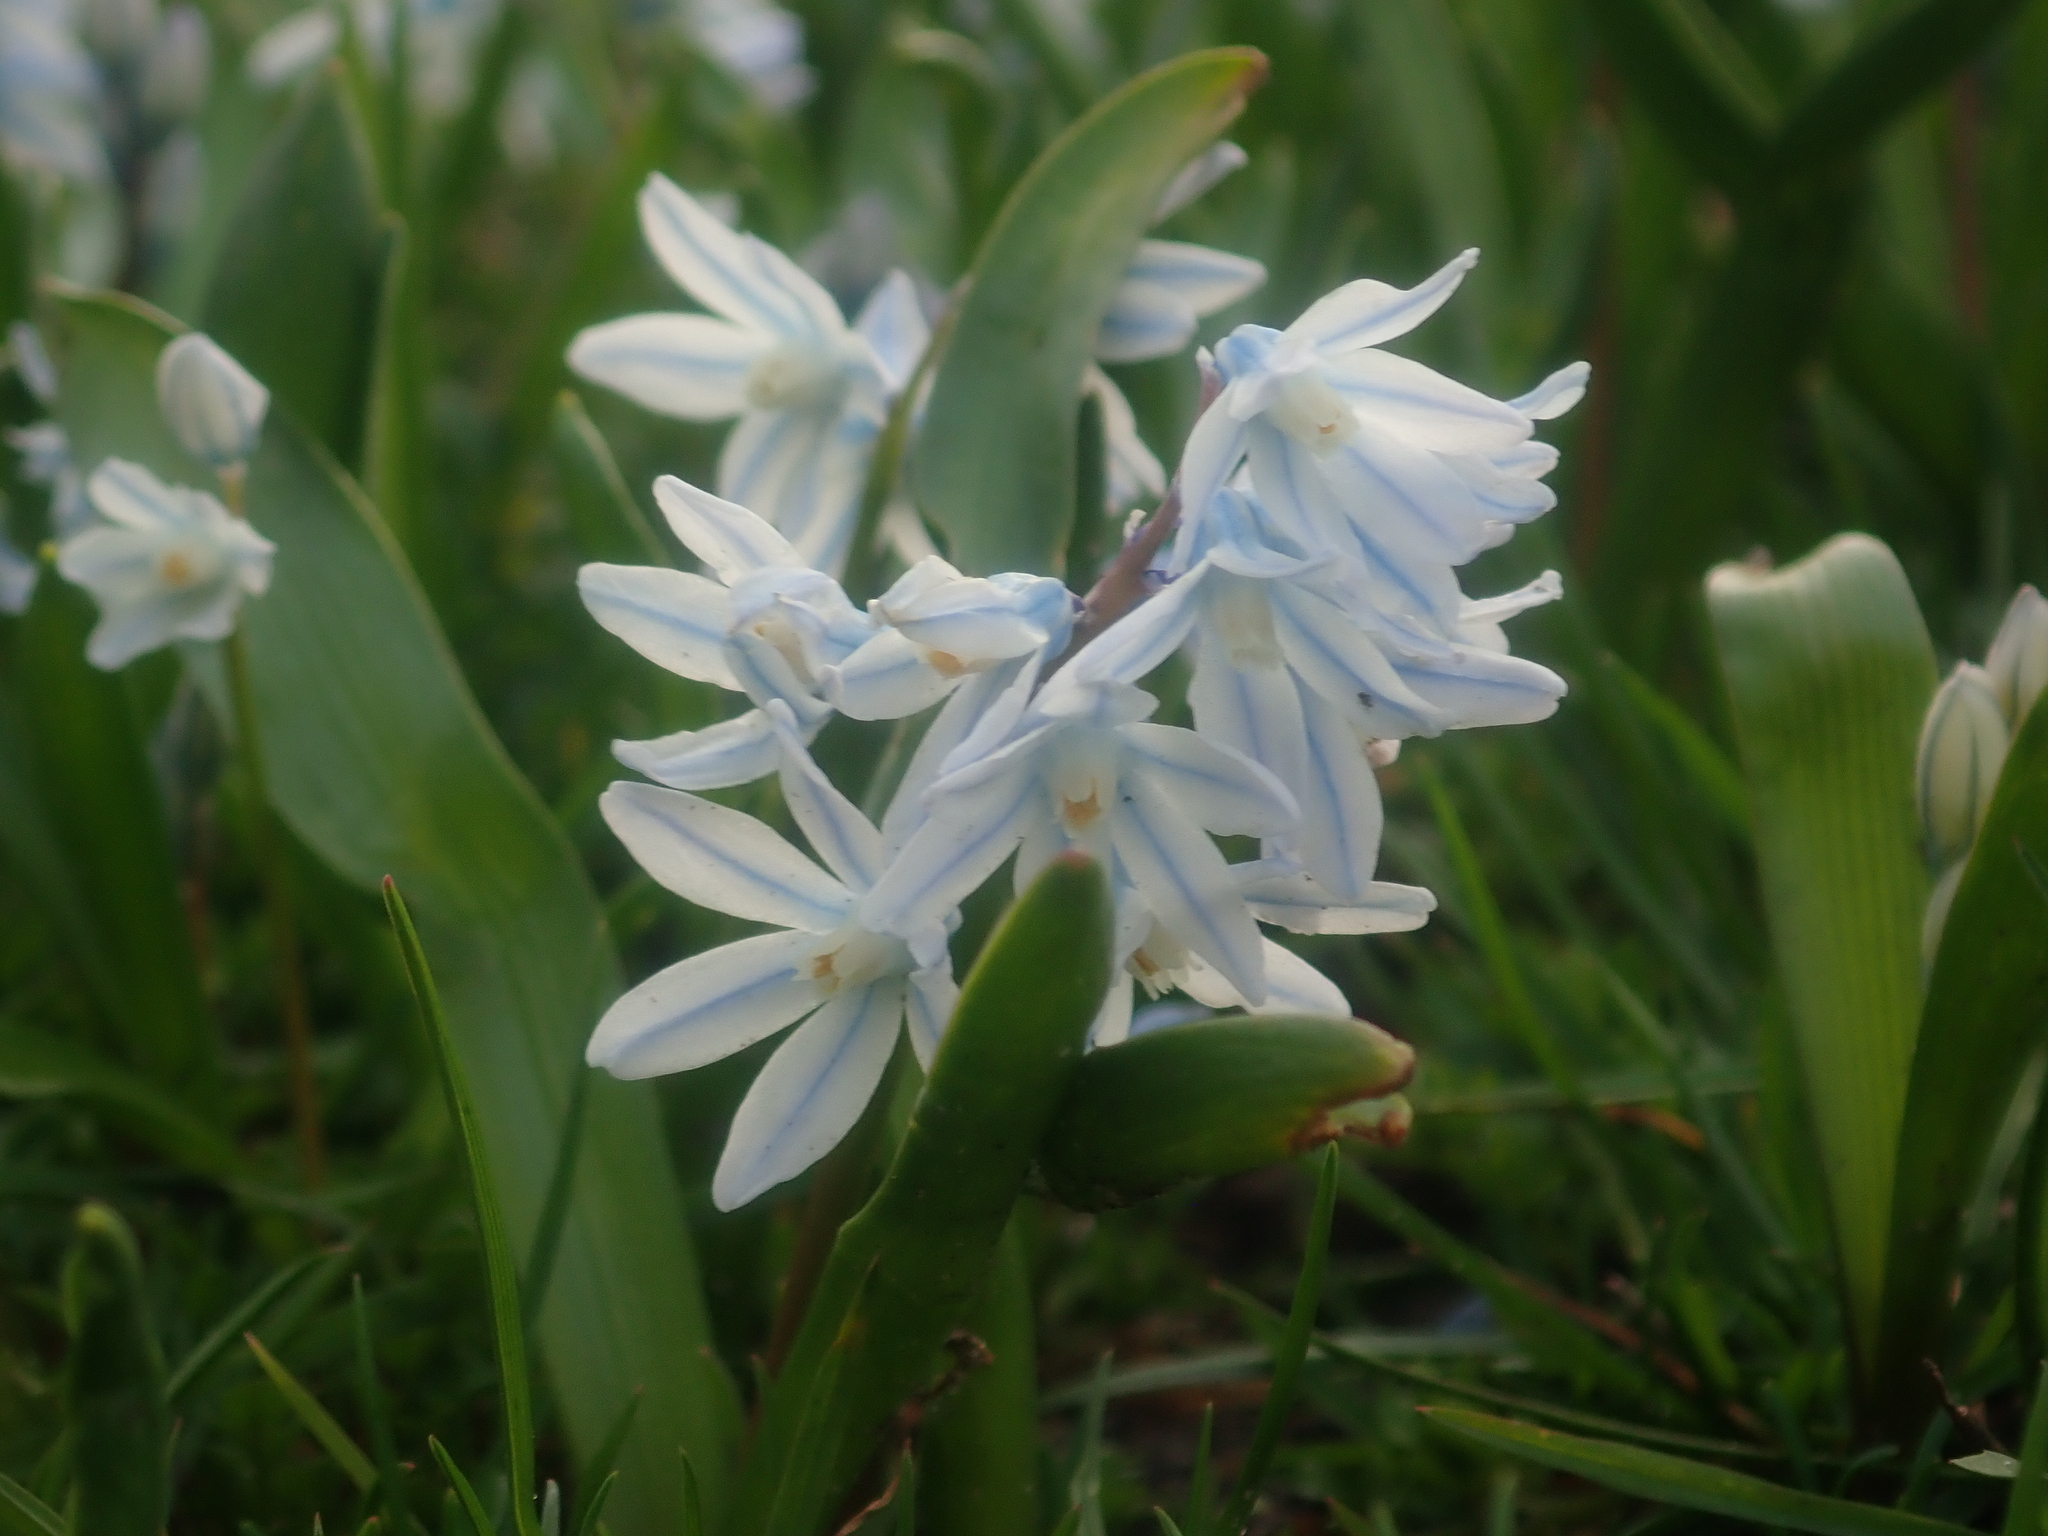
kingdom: Plantae
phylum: Tracheophyta
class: Liliopsida
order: Asparagales
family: Asparagaceae
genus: Puschkinia
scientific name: Puschkinia scilloides
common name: Striped squill
